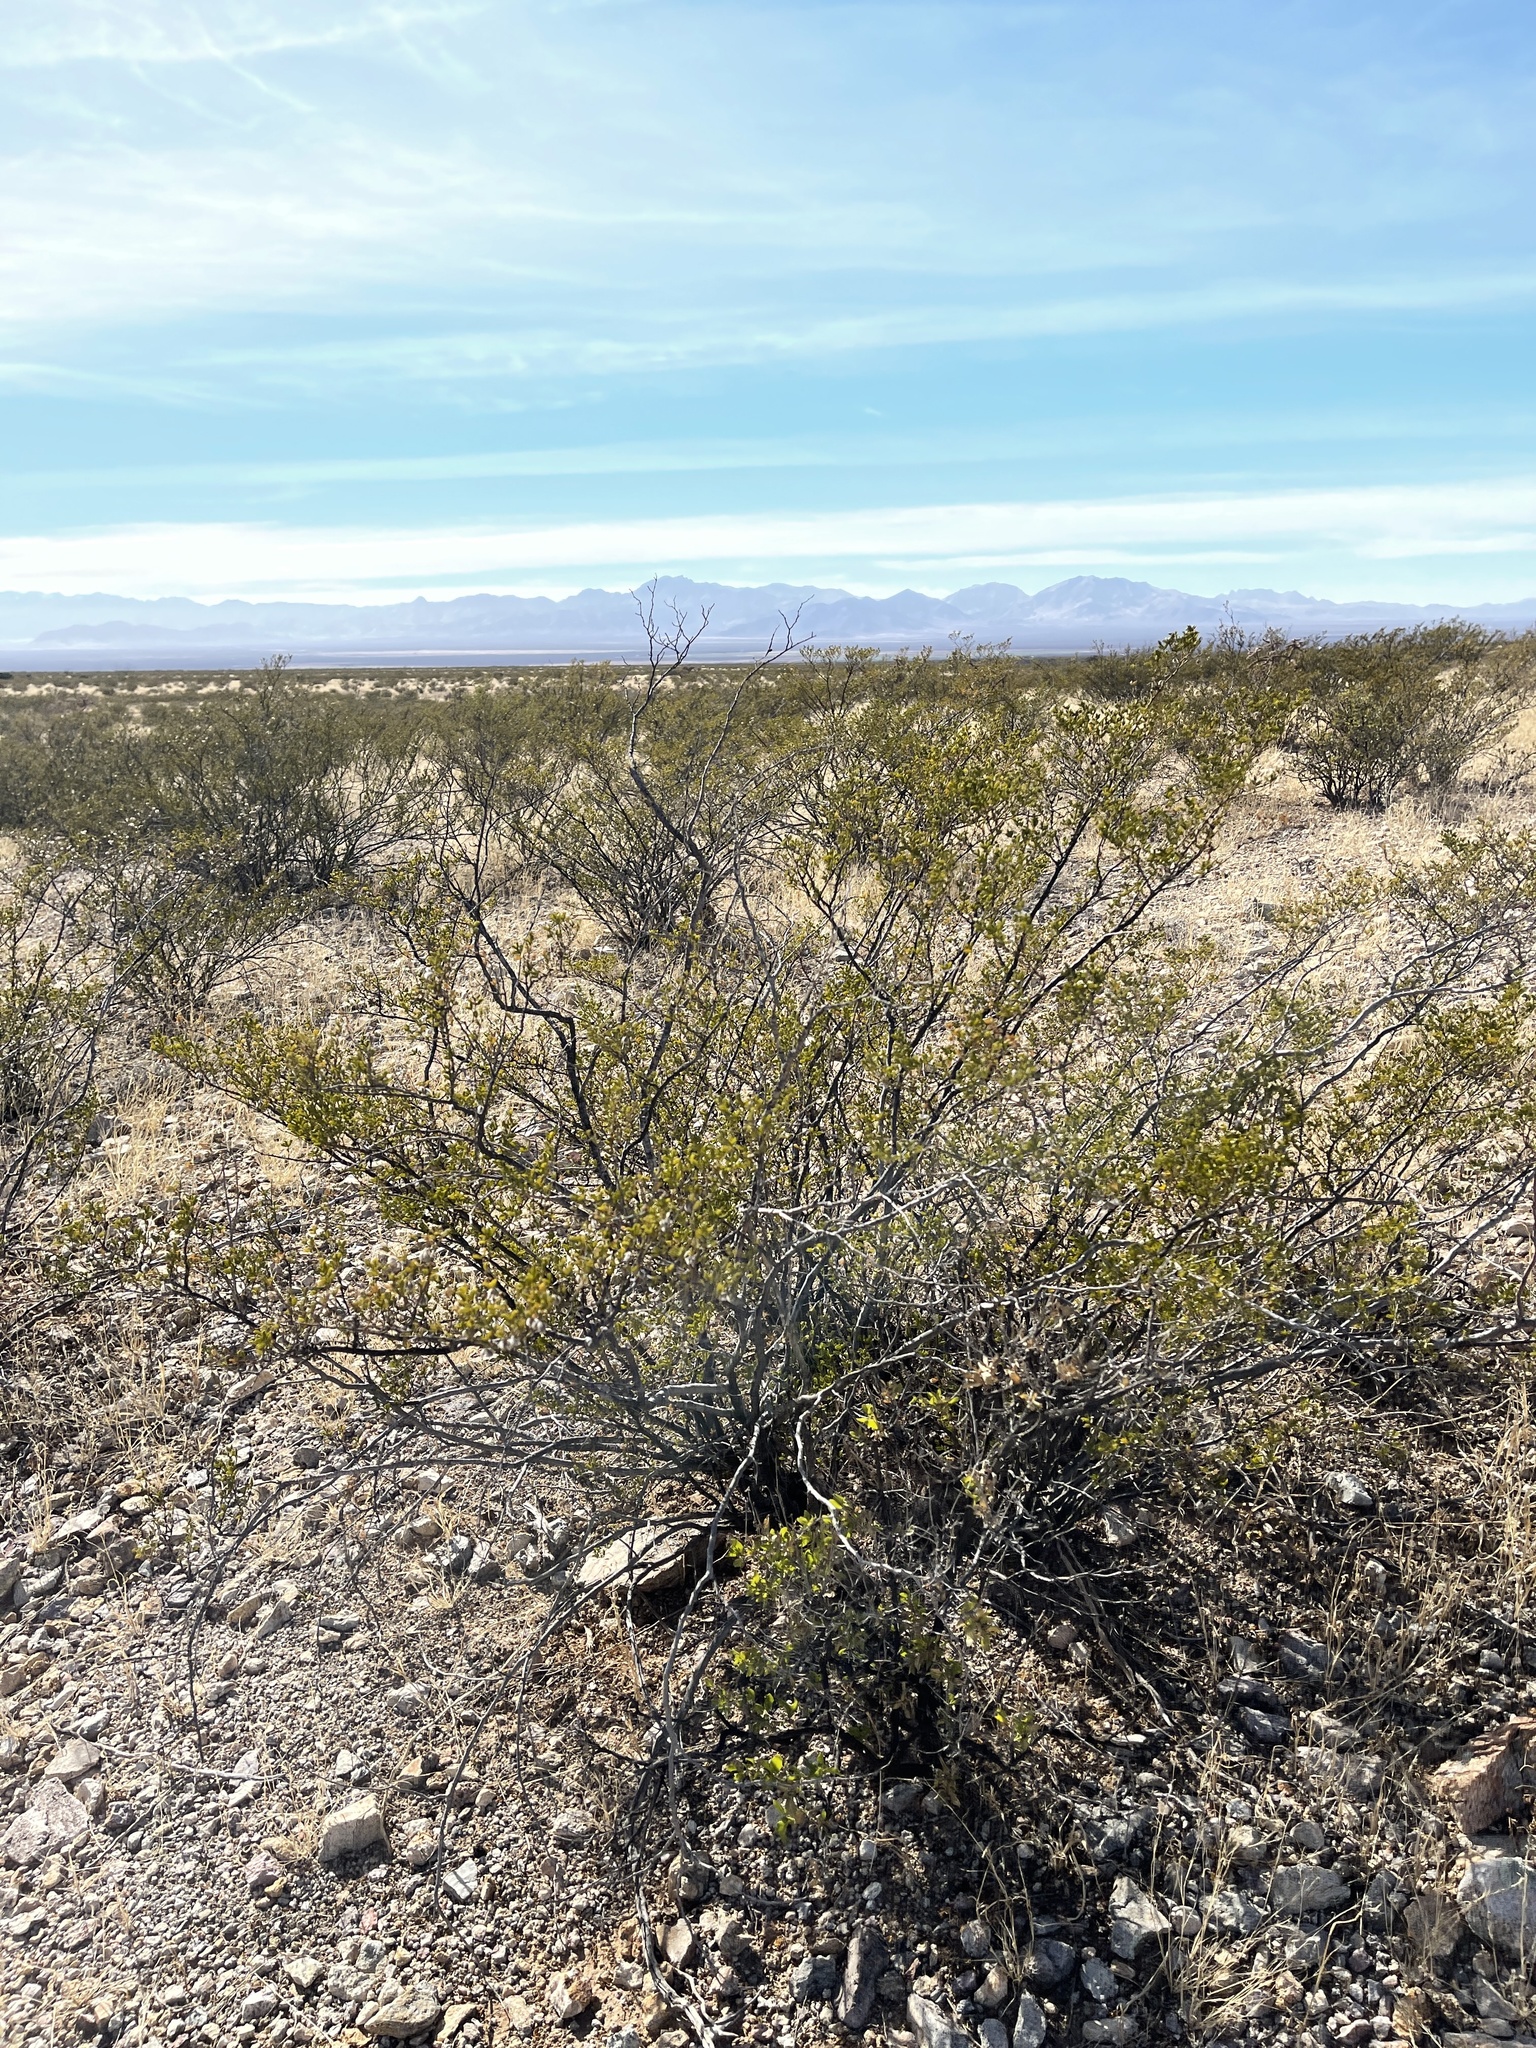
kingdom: Plantae
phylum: Tracheophyta
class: Magnoliopsida
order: Zygophyllales
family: Zygophyllaceae
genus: Larrea
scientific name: Larrea tridentata
